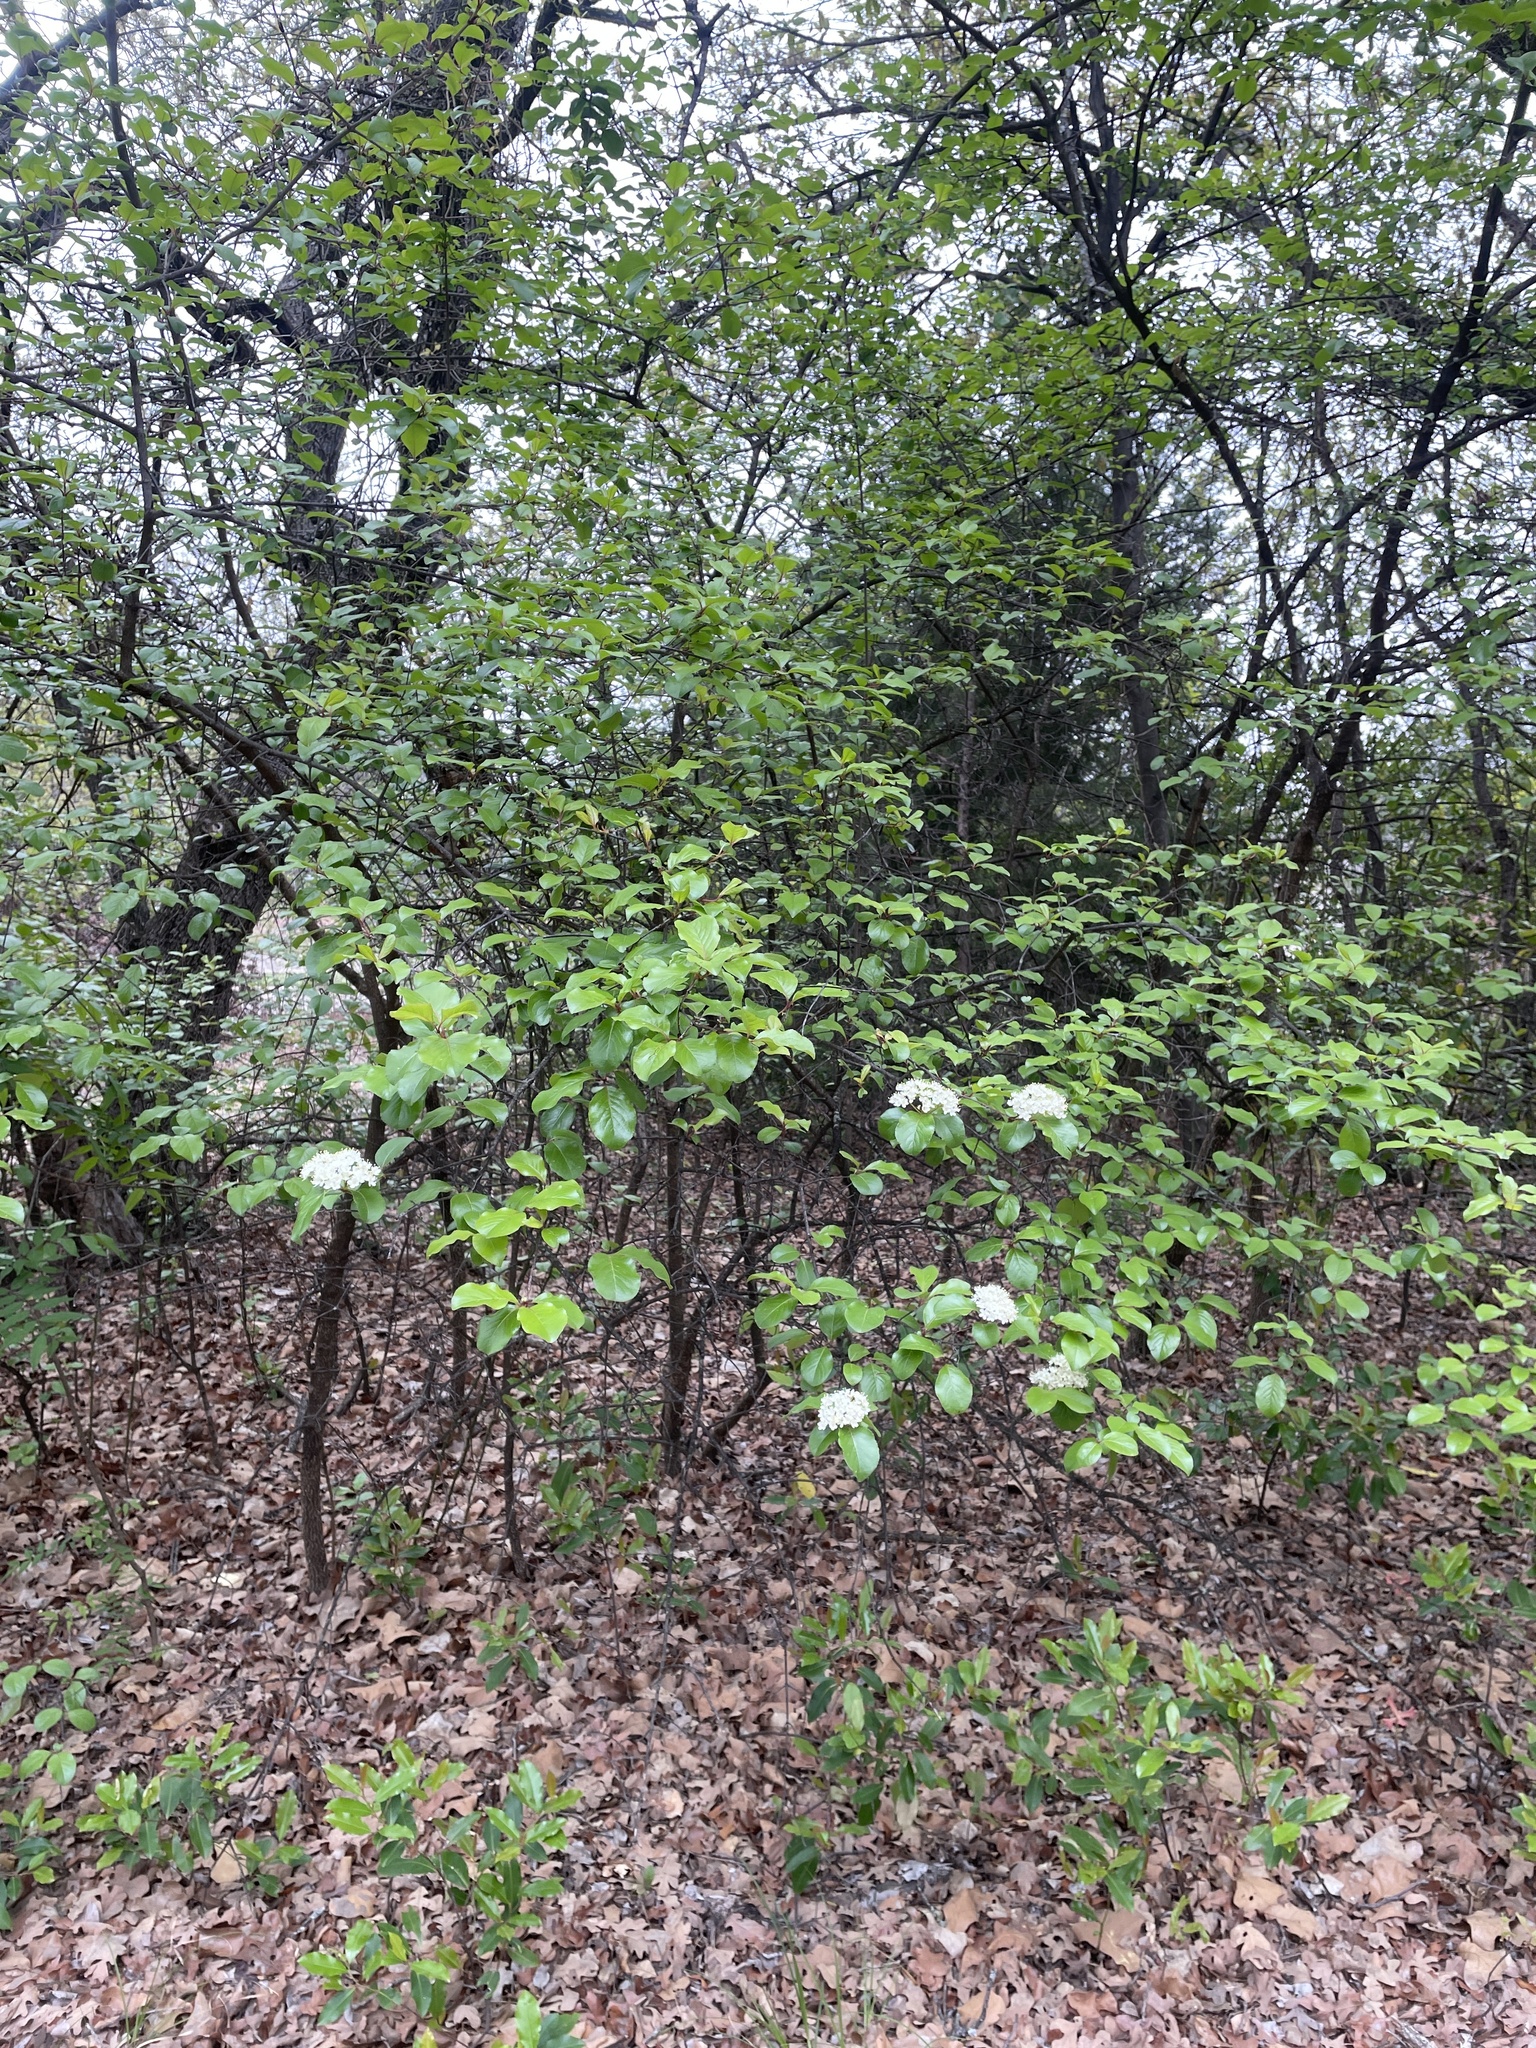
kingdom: Plantae
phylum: Tracheophyta
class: Magnoliopsida
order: Dipsacales
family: Viburnaceae
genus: Viburnum
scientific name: Viburnum rufidulum
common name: Blue haw
